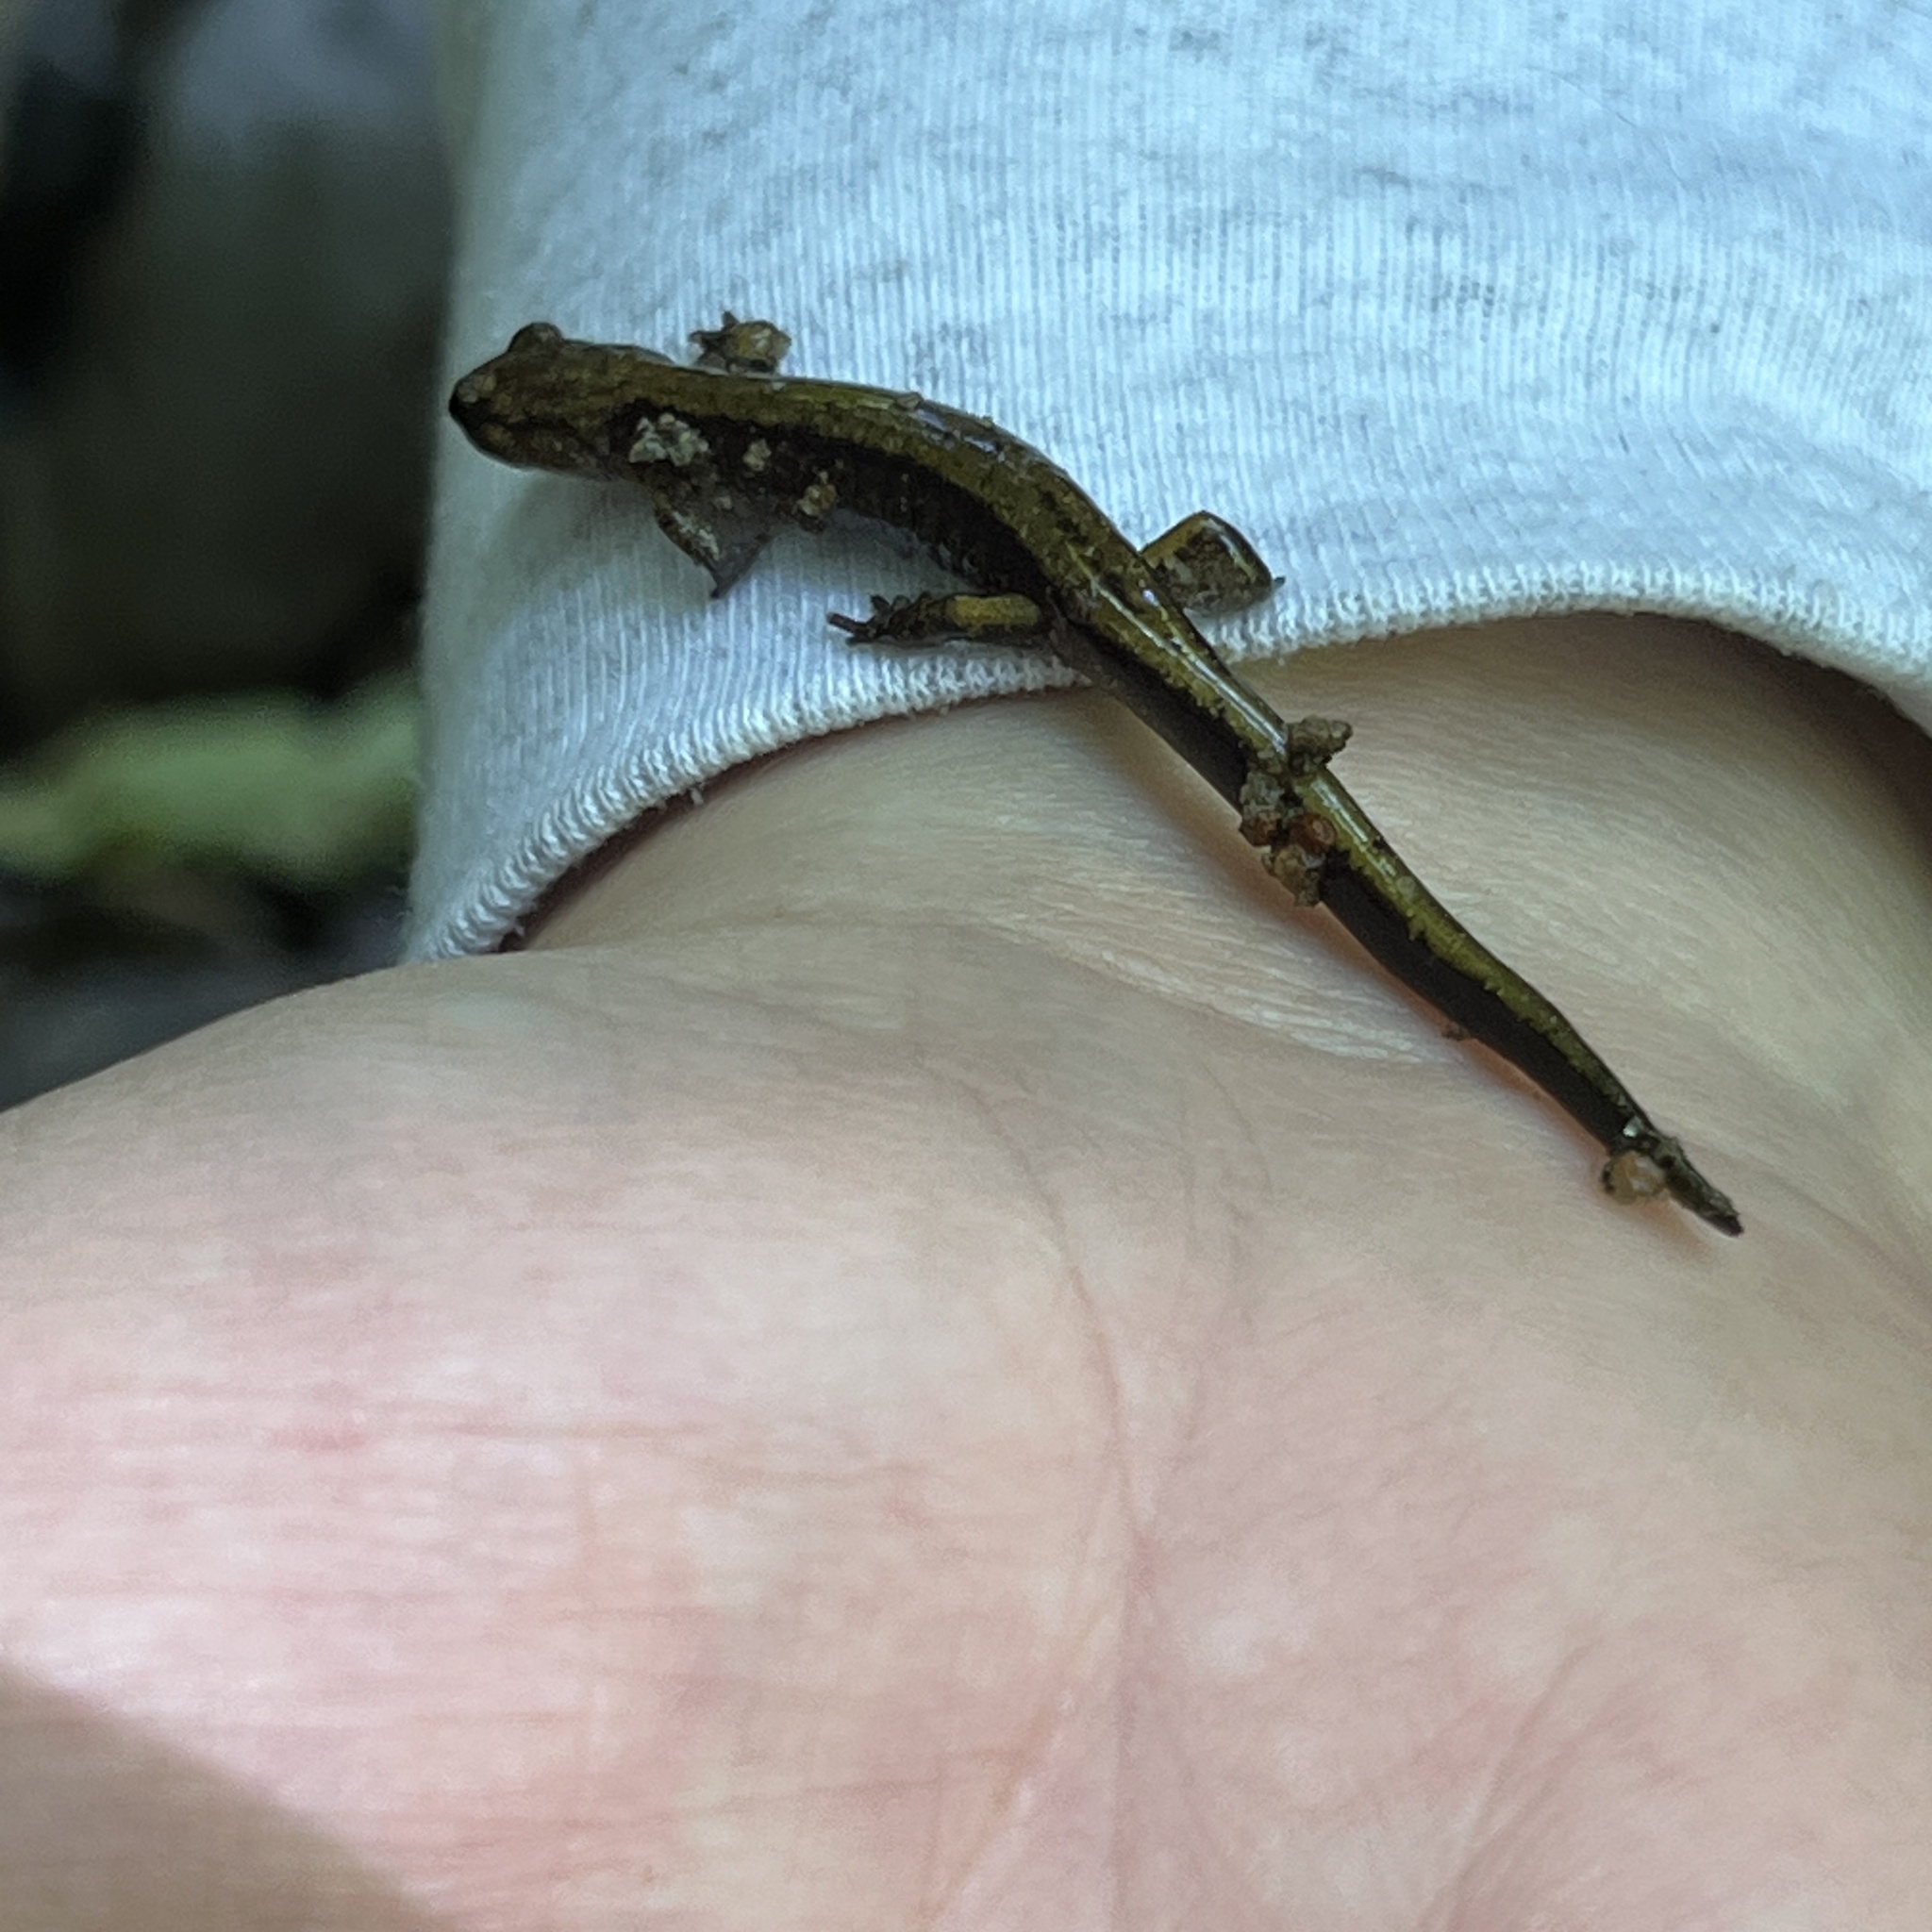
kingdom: Animalia
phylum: Chordata
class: Amphibia
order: Caudata
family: Plethodontidae
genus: Plethodon
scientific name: Plethodon dunni
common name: Dunn's salamander
